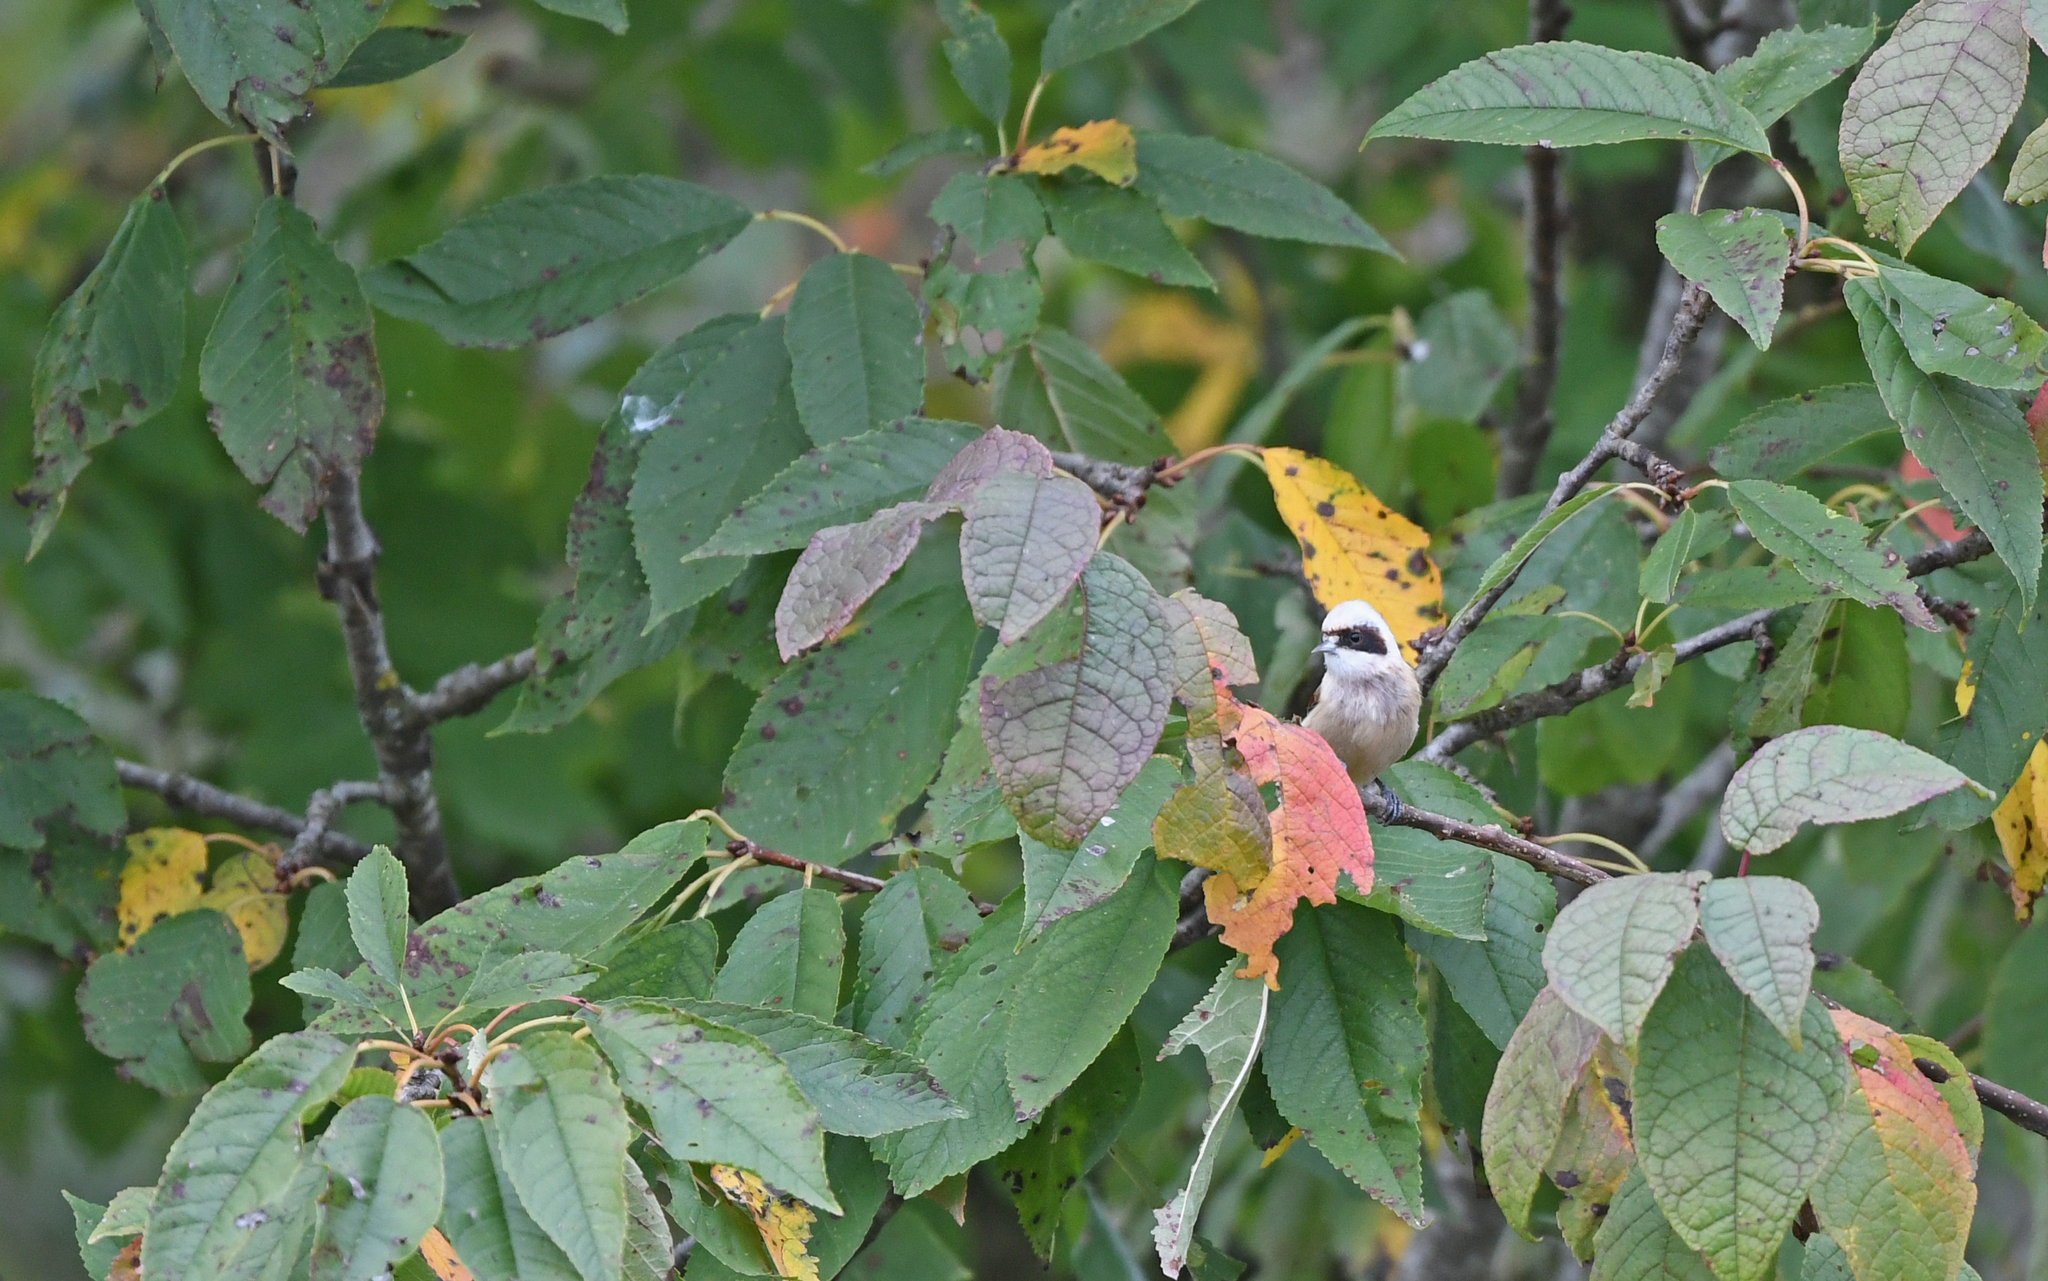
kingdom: Animalia
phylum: Chordata
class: Aves
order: Passeriformes
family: Remizidae
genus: Remiz
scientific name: Remiz pendulinus
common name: Eurasian penduline tit
